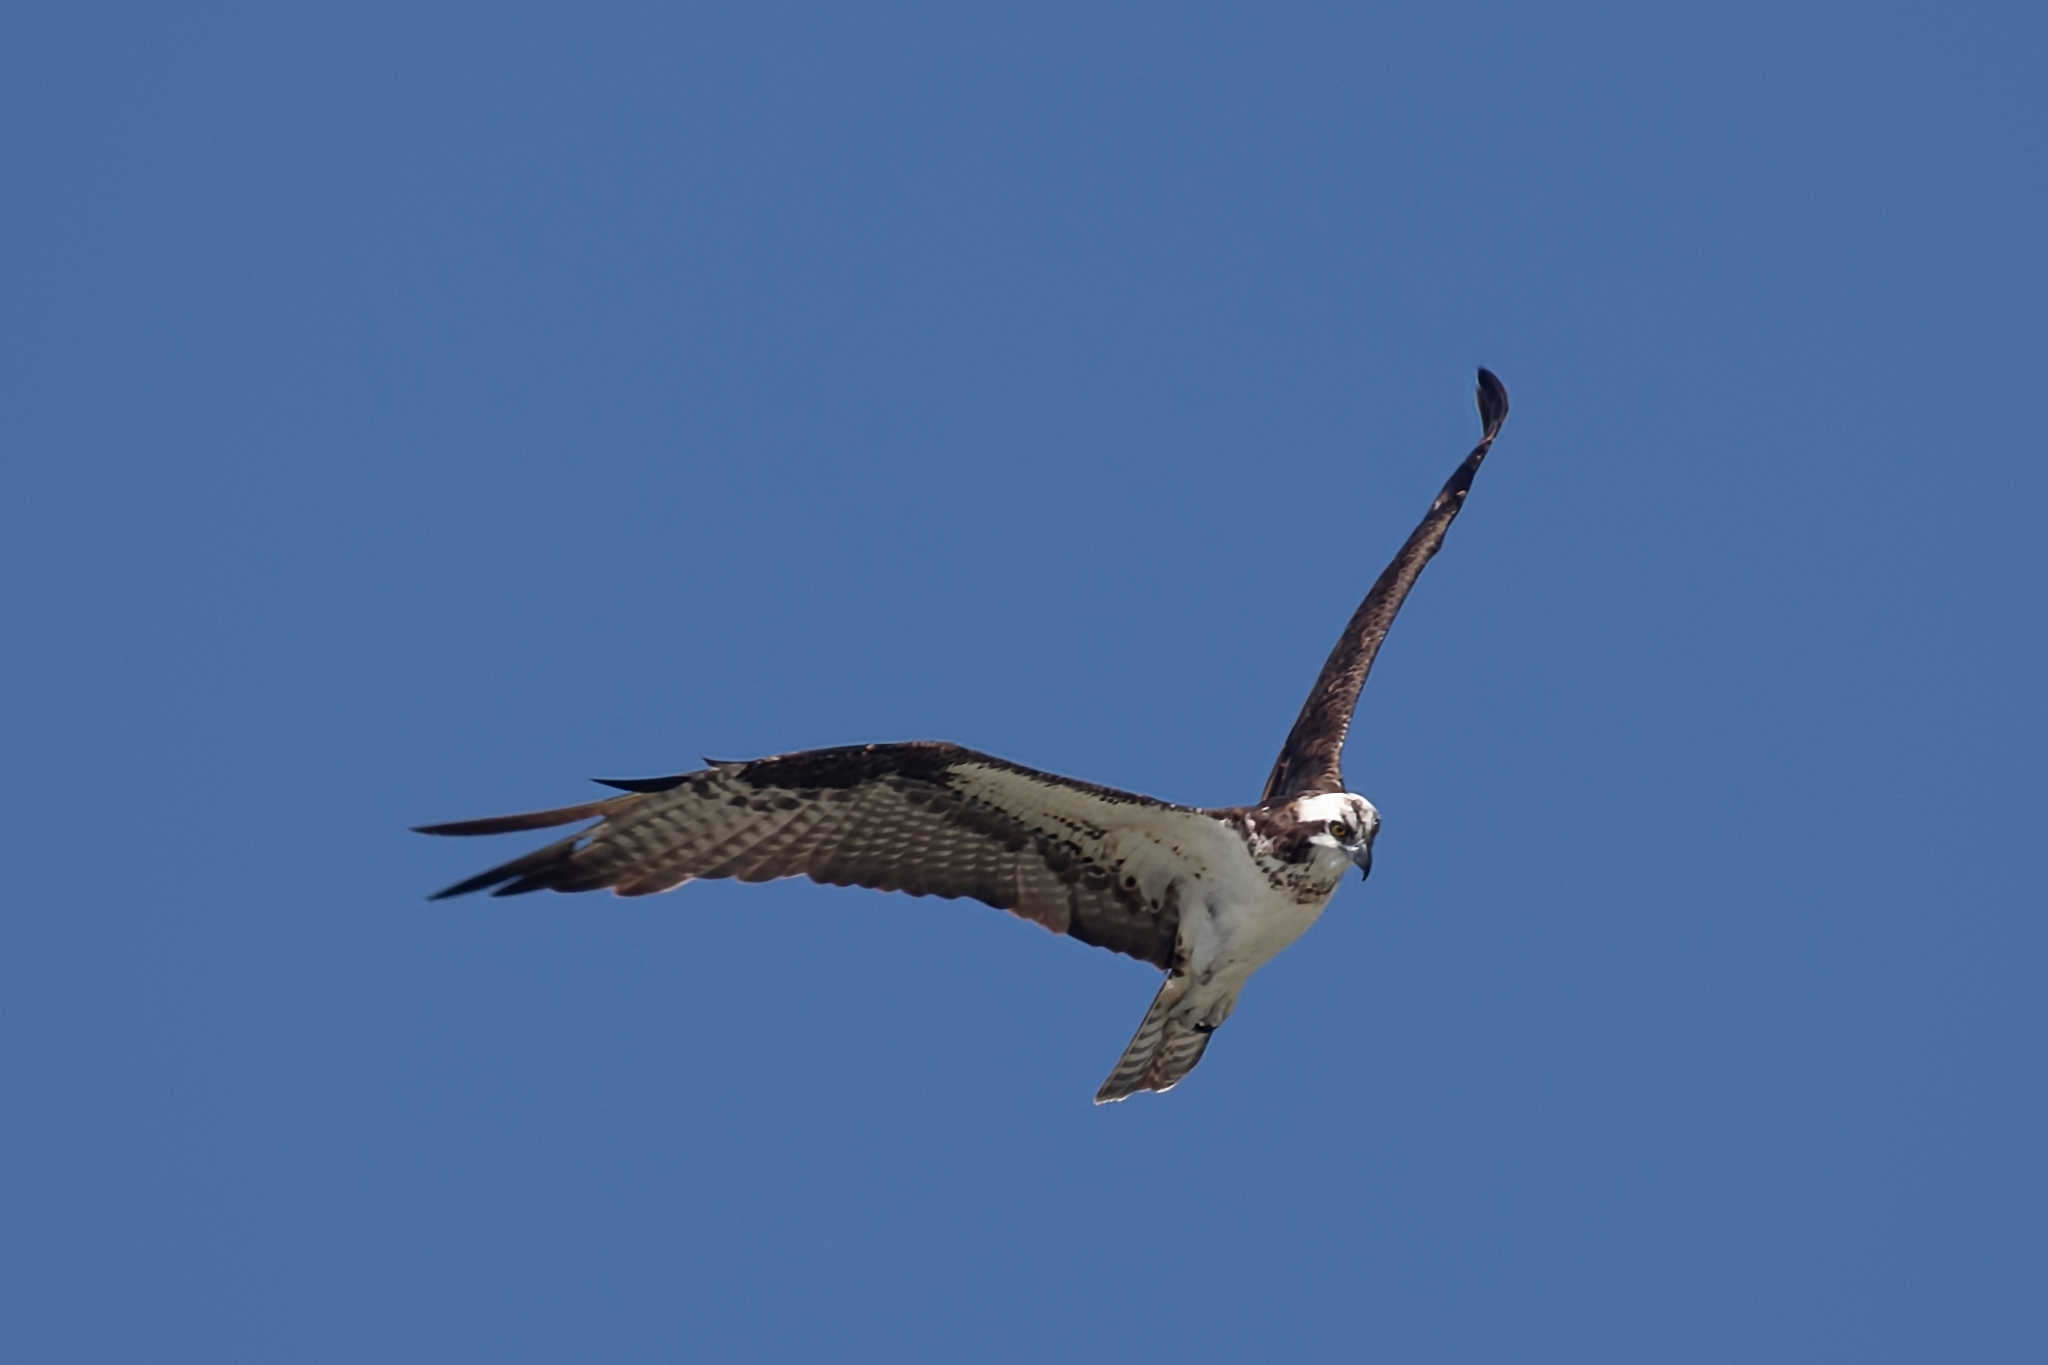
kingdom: Animalia
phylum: Chordata
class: Aves
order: Accipitriformes
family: Pandionidae
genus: Pandion
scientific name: Pandion haliaetus
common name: Osprey
